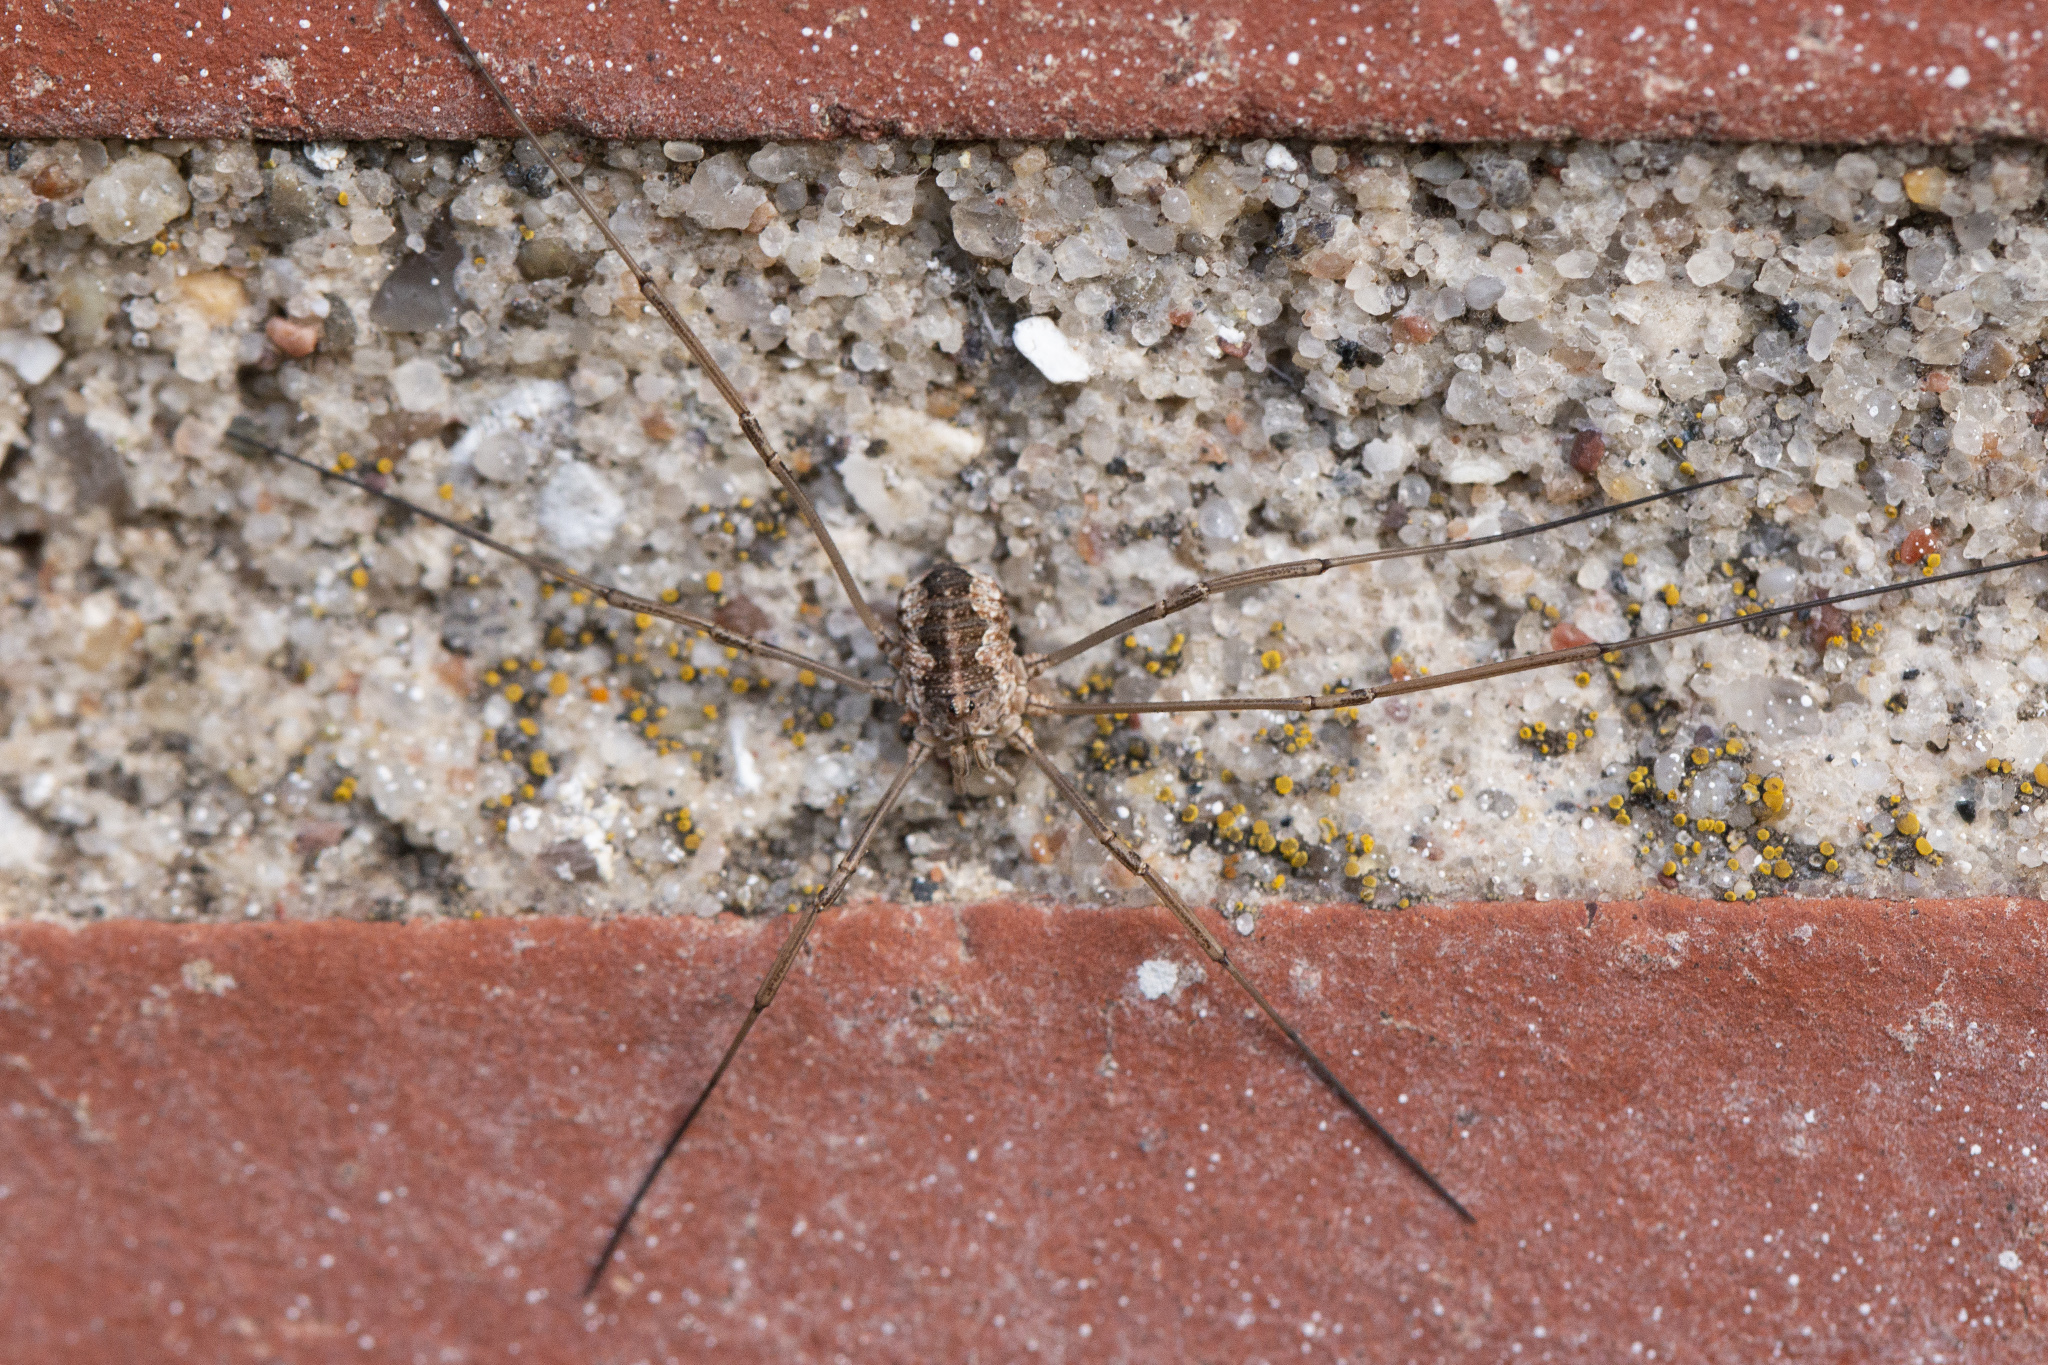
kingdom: Animalia
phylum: Arthropoda
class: Arachnida
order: Opiliones
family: Phalangiidae
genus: Phalangium
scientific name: Phalangium opilio
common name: Daddy longleg
